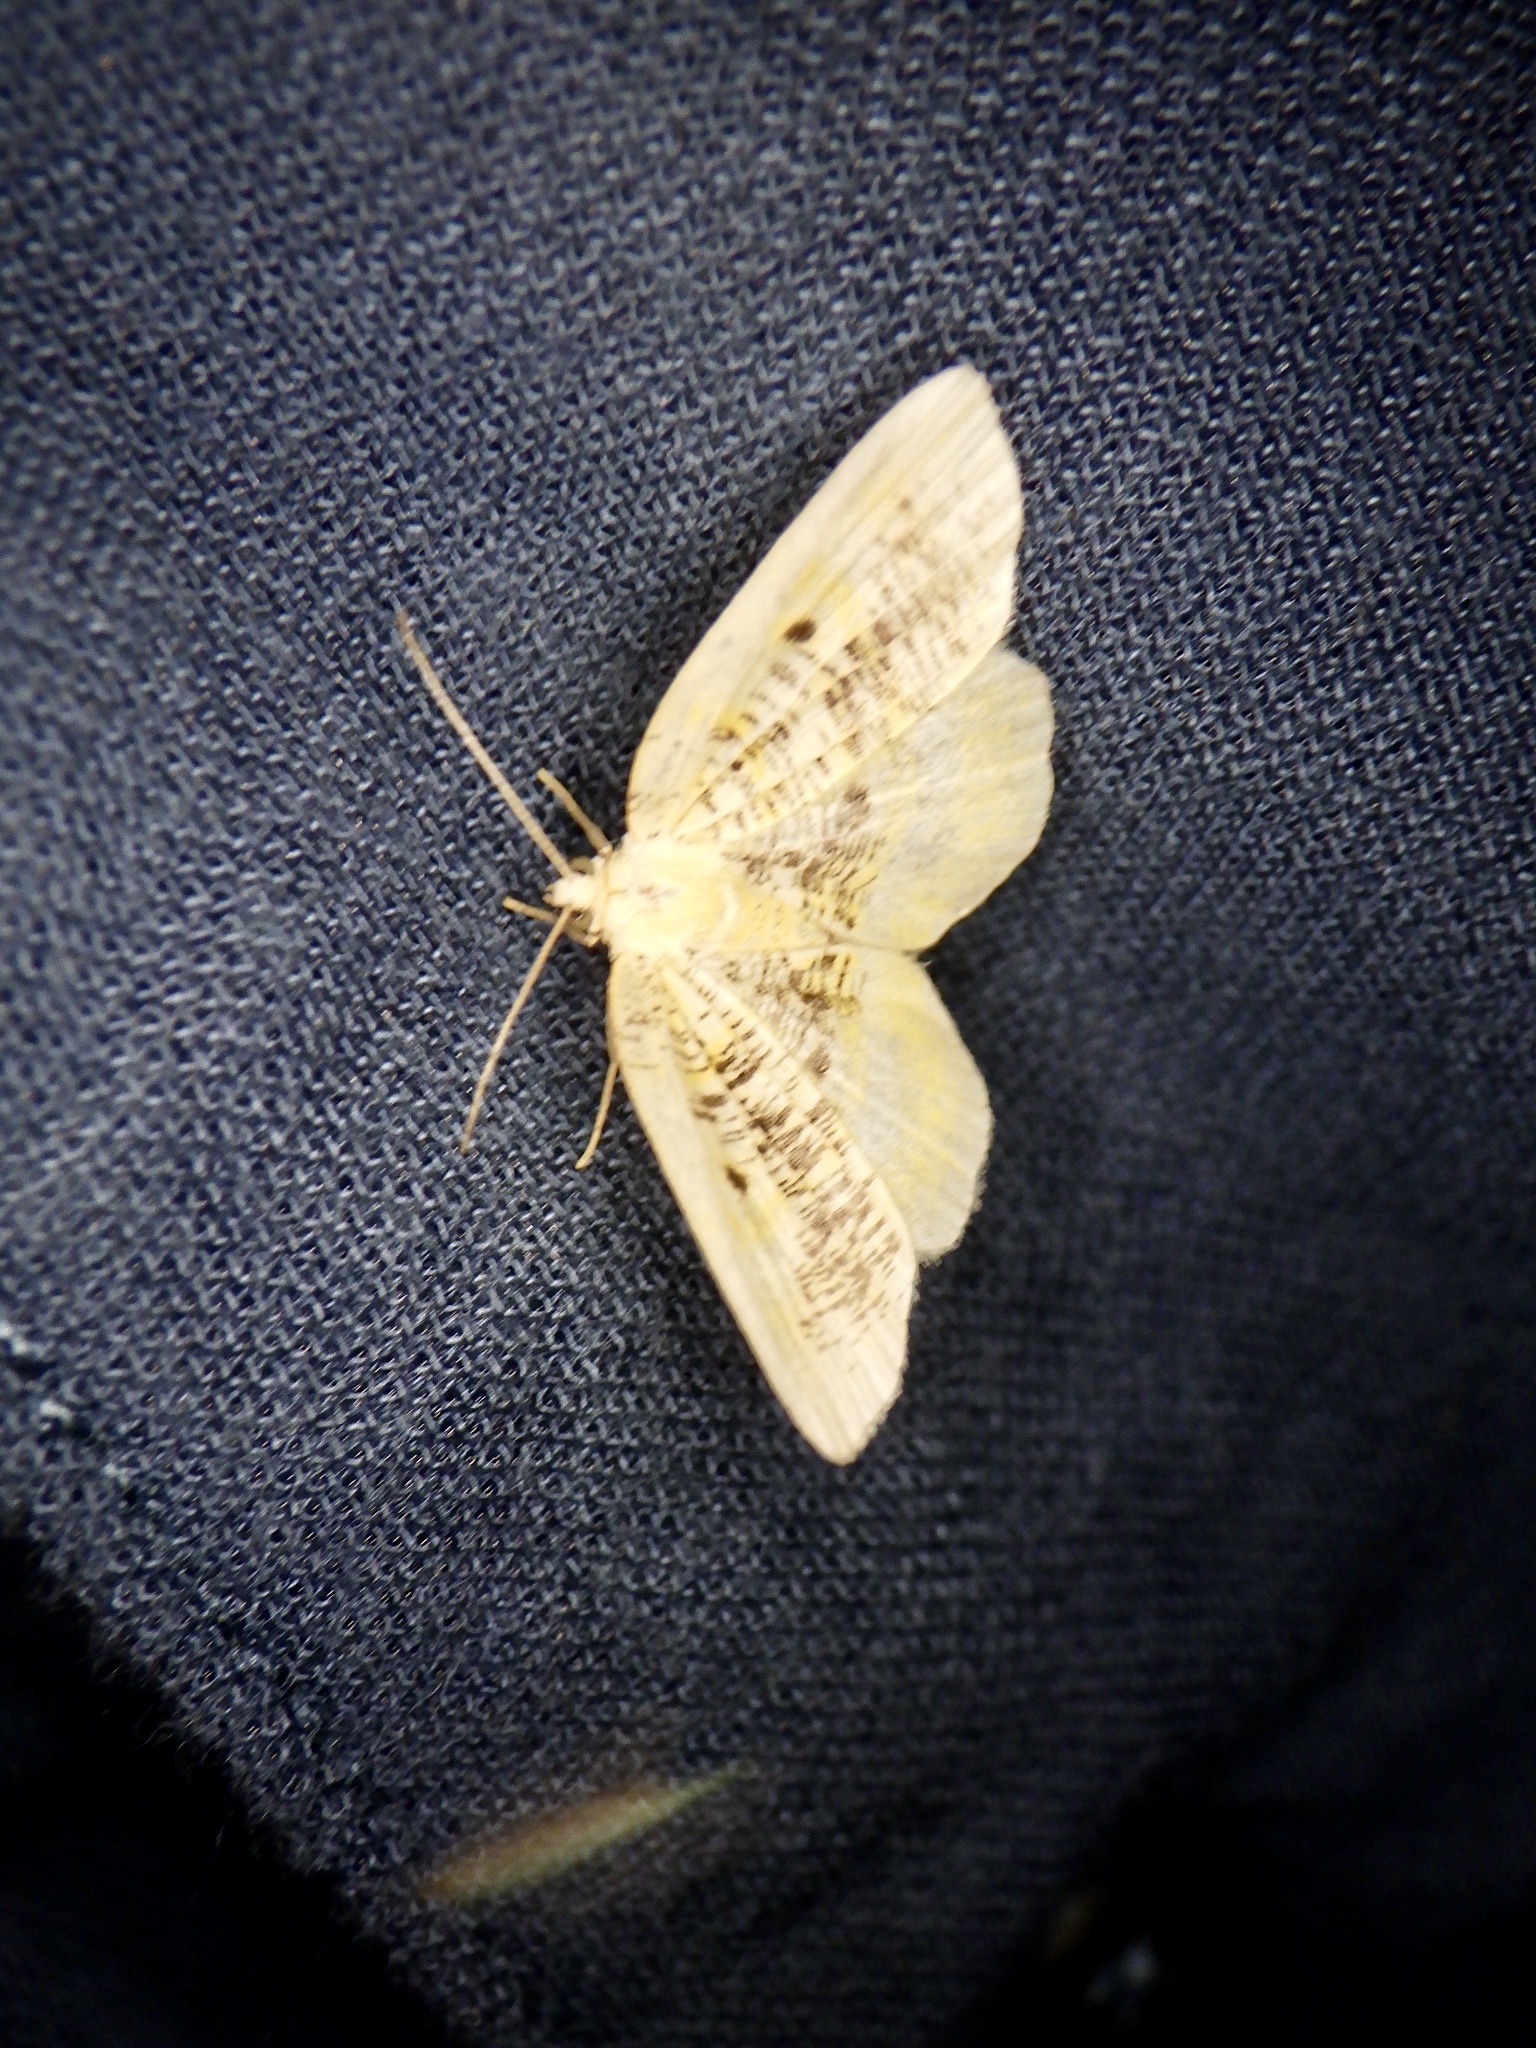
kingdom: Animalia
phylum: Arthropoda
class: Insecta
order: Lepidoptera
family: Geometridae
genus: Euchristophia
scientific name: Euchristophia cumulata
